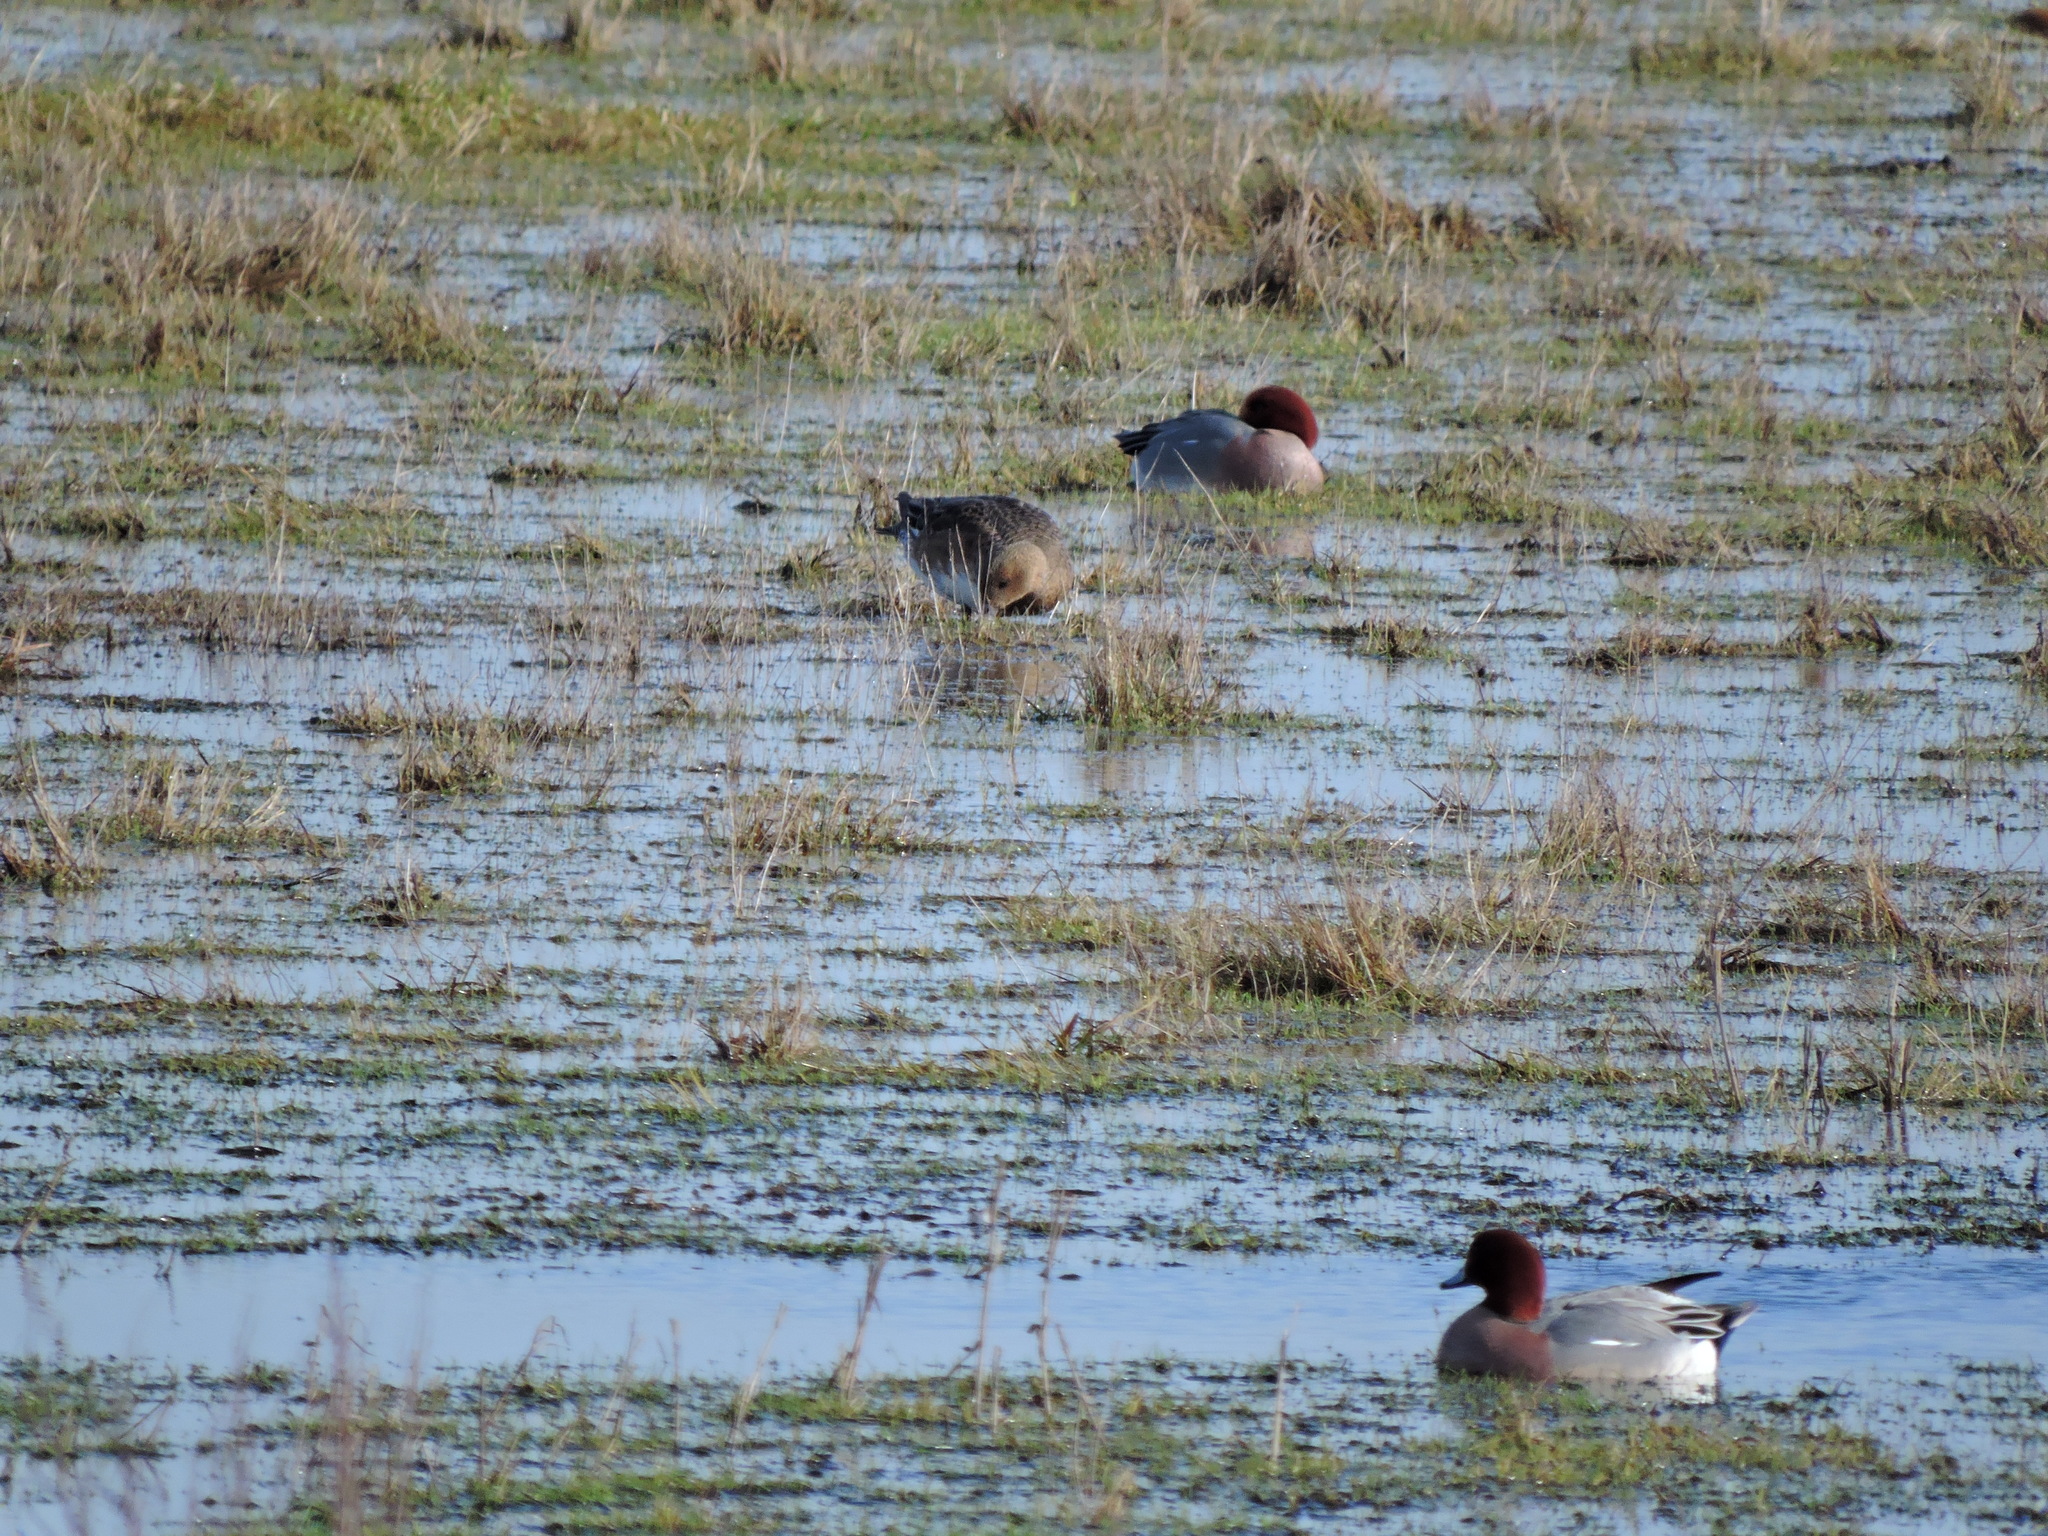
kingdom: Animalia
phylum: Chordata
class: Aves
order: Anseriformes
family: Anatidae
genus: Mareca
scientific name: Mareca penelope
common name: Eurasian wigeon
